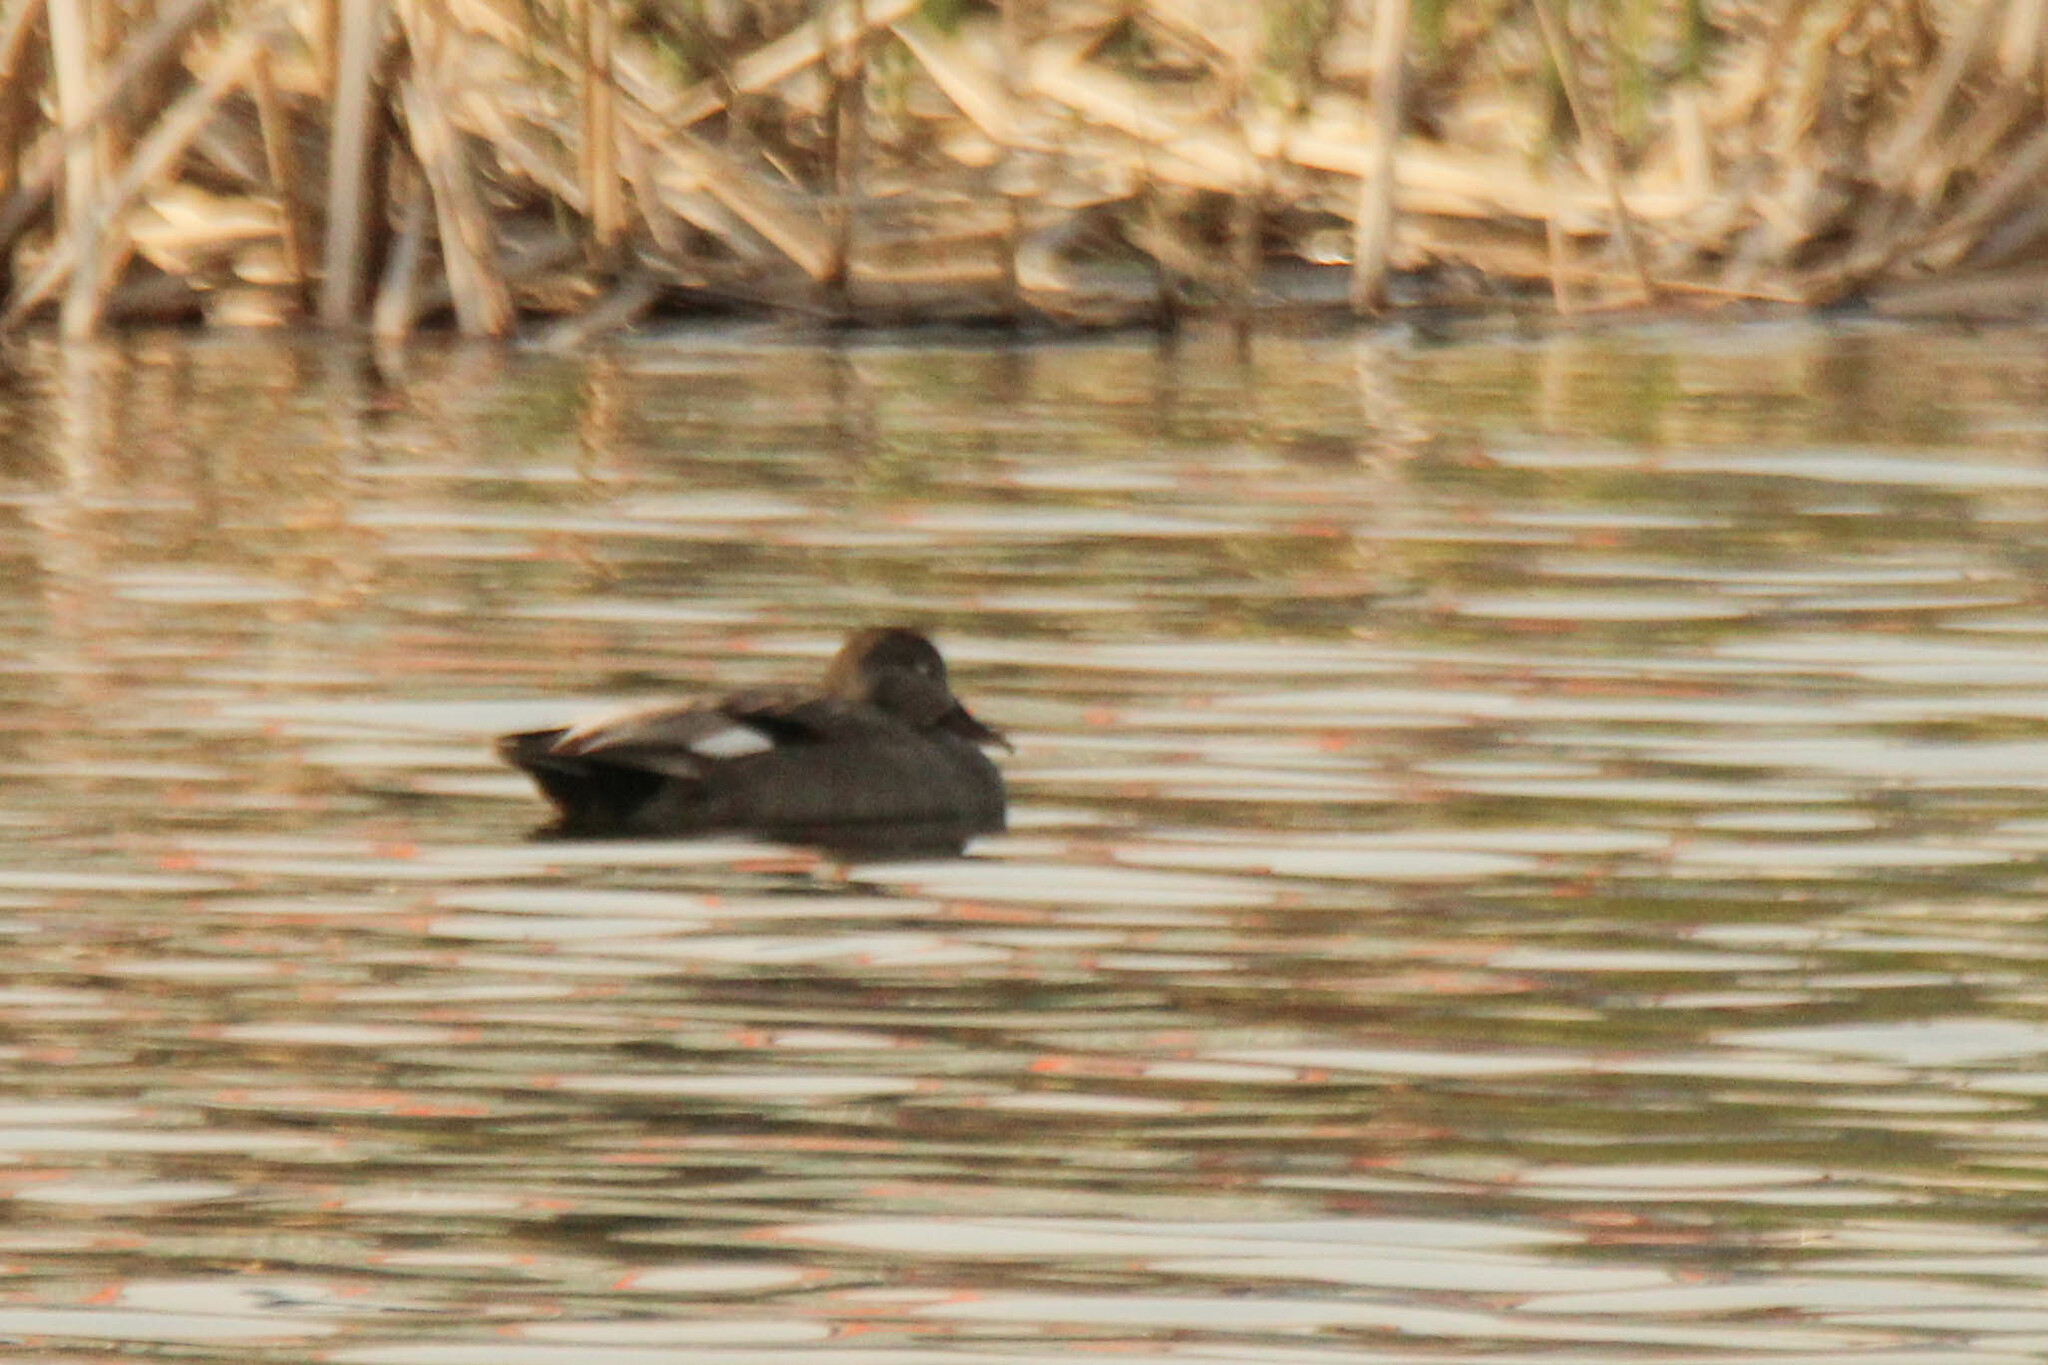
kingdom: Animalia
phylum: Chordata
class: Aves
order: Anseriformes
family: Anatidae
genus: Mareca
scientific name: Mareca strepera
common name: Gadwall
